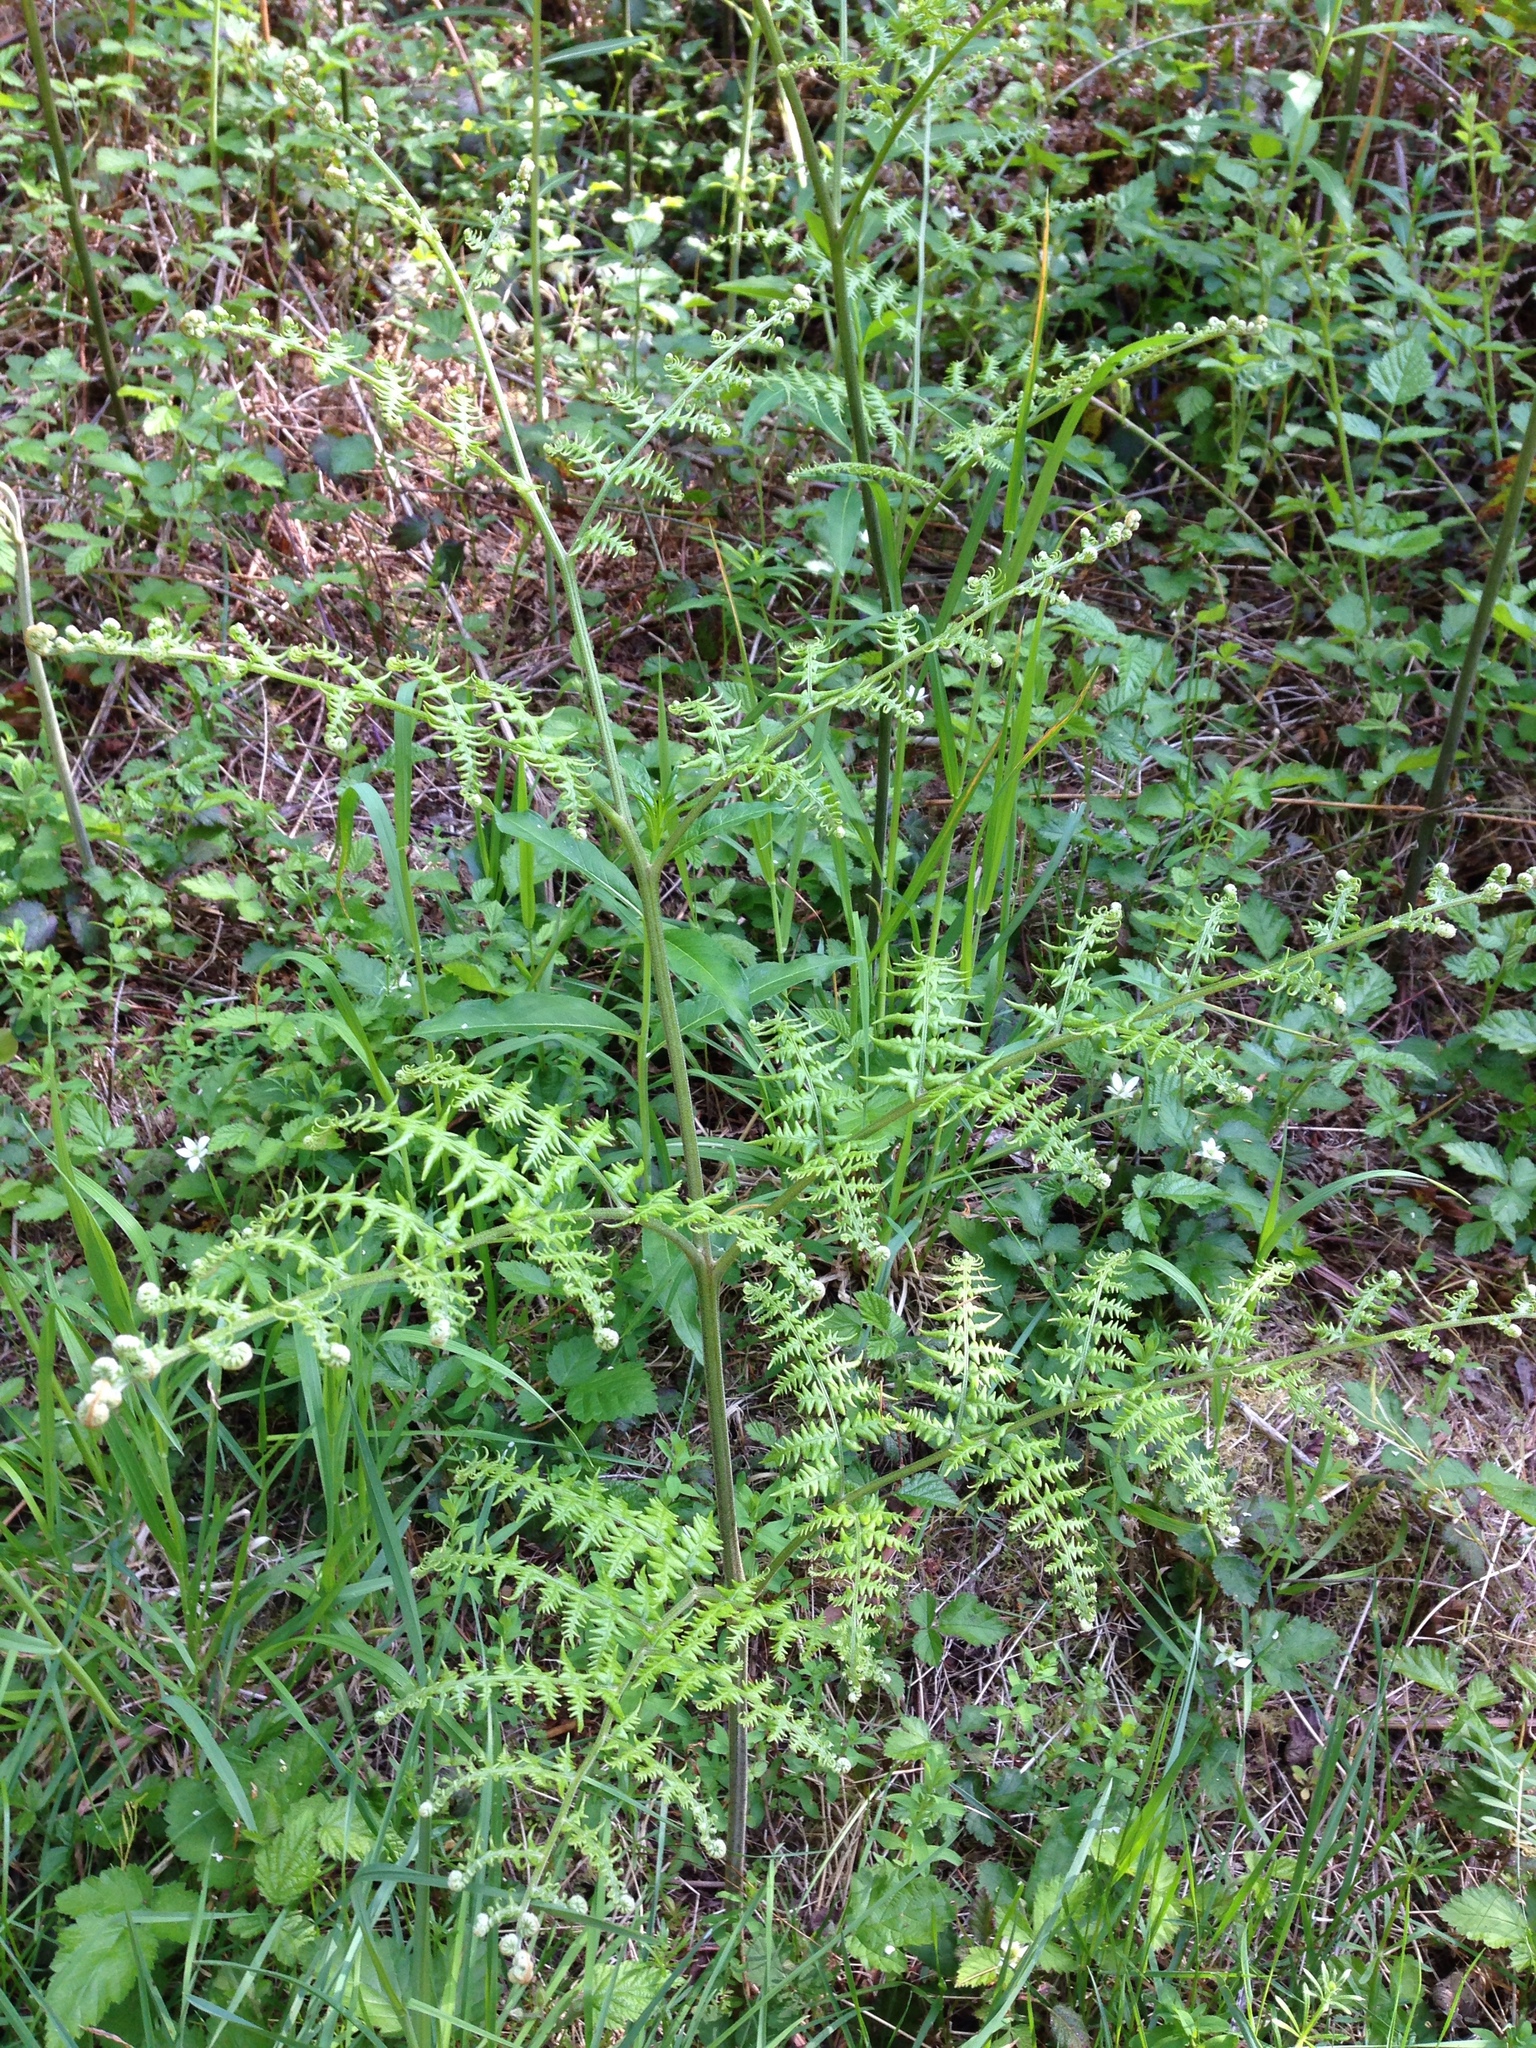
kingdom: Plantae
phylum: Tracheophyta
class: Polypodiopsida
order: Polypodiales
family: Dennstaedtiaceae
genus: Pteridium
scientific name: Pteridium aquilinum
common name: Bracken
